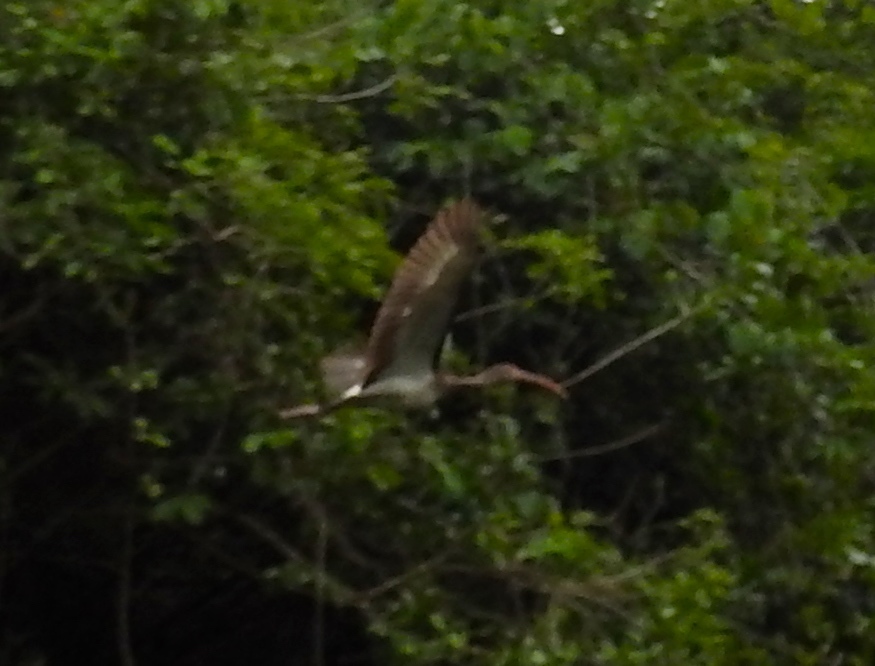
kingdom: Animalia
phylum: Chordata
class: Aves
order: Pelecaniformes
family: Threskiornithidae
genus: Eudocimus
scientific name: Eudocimus albus
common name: White ibis
